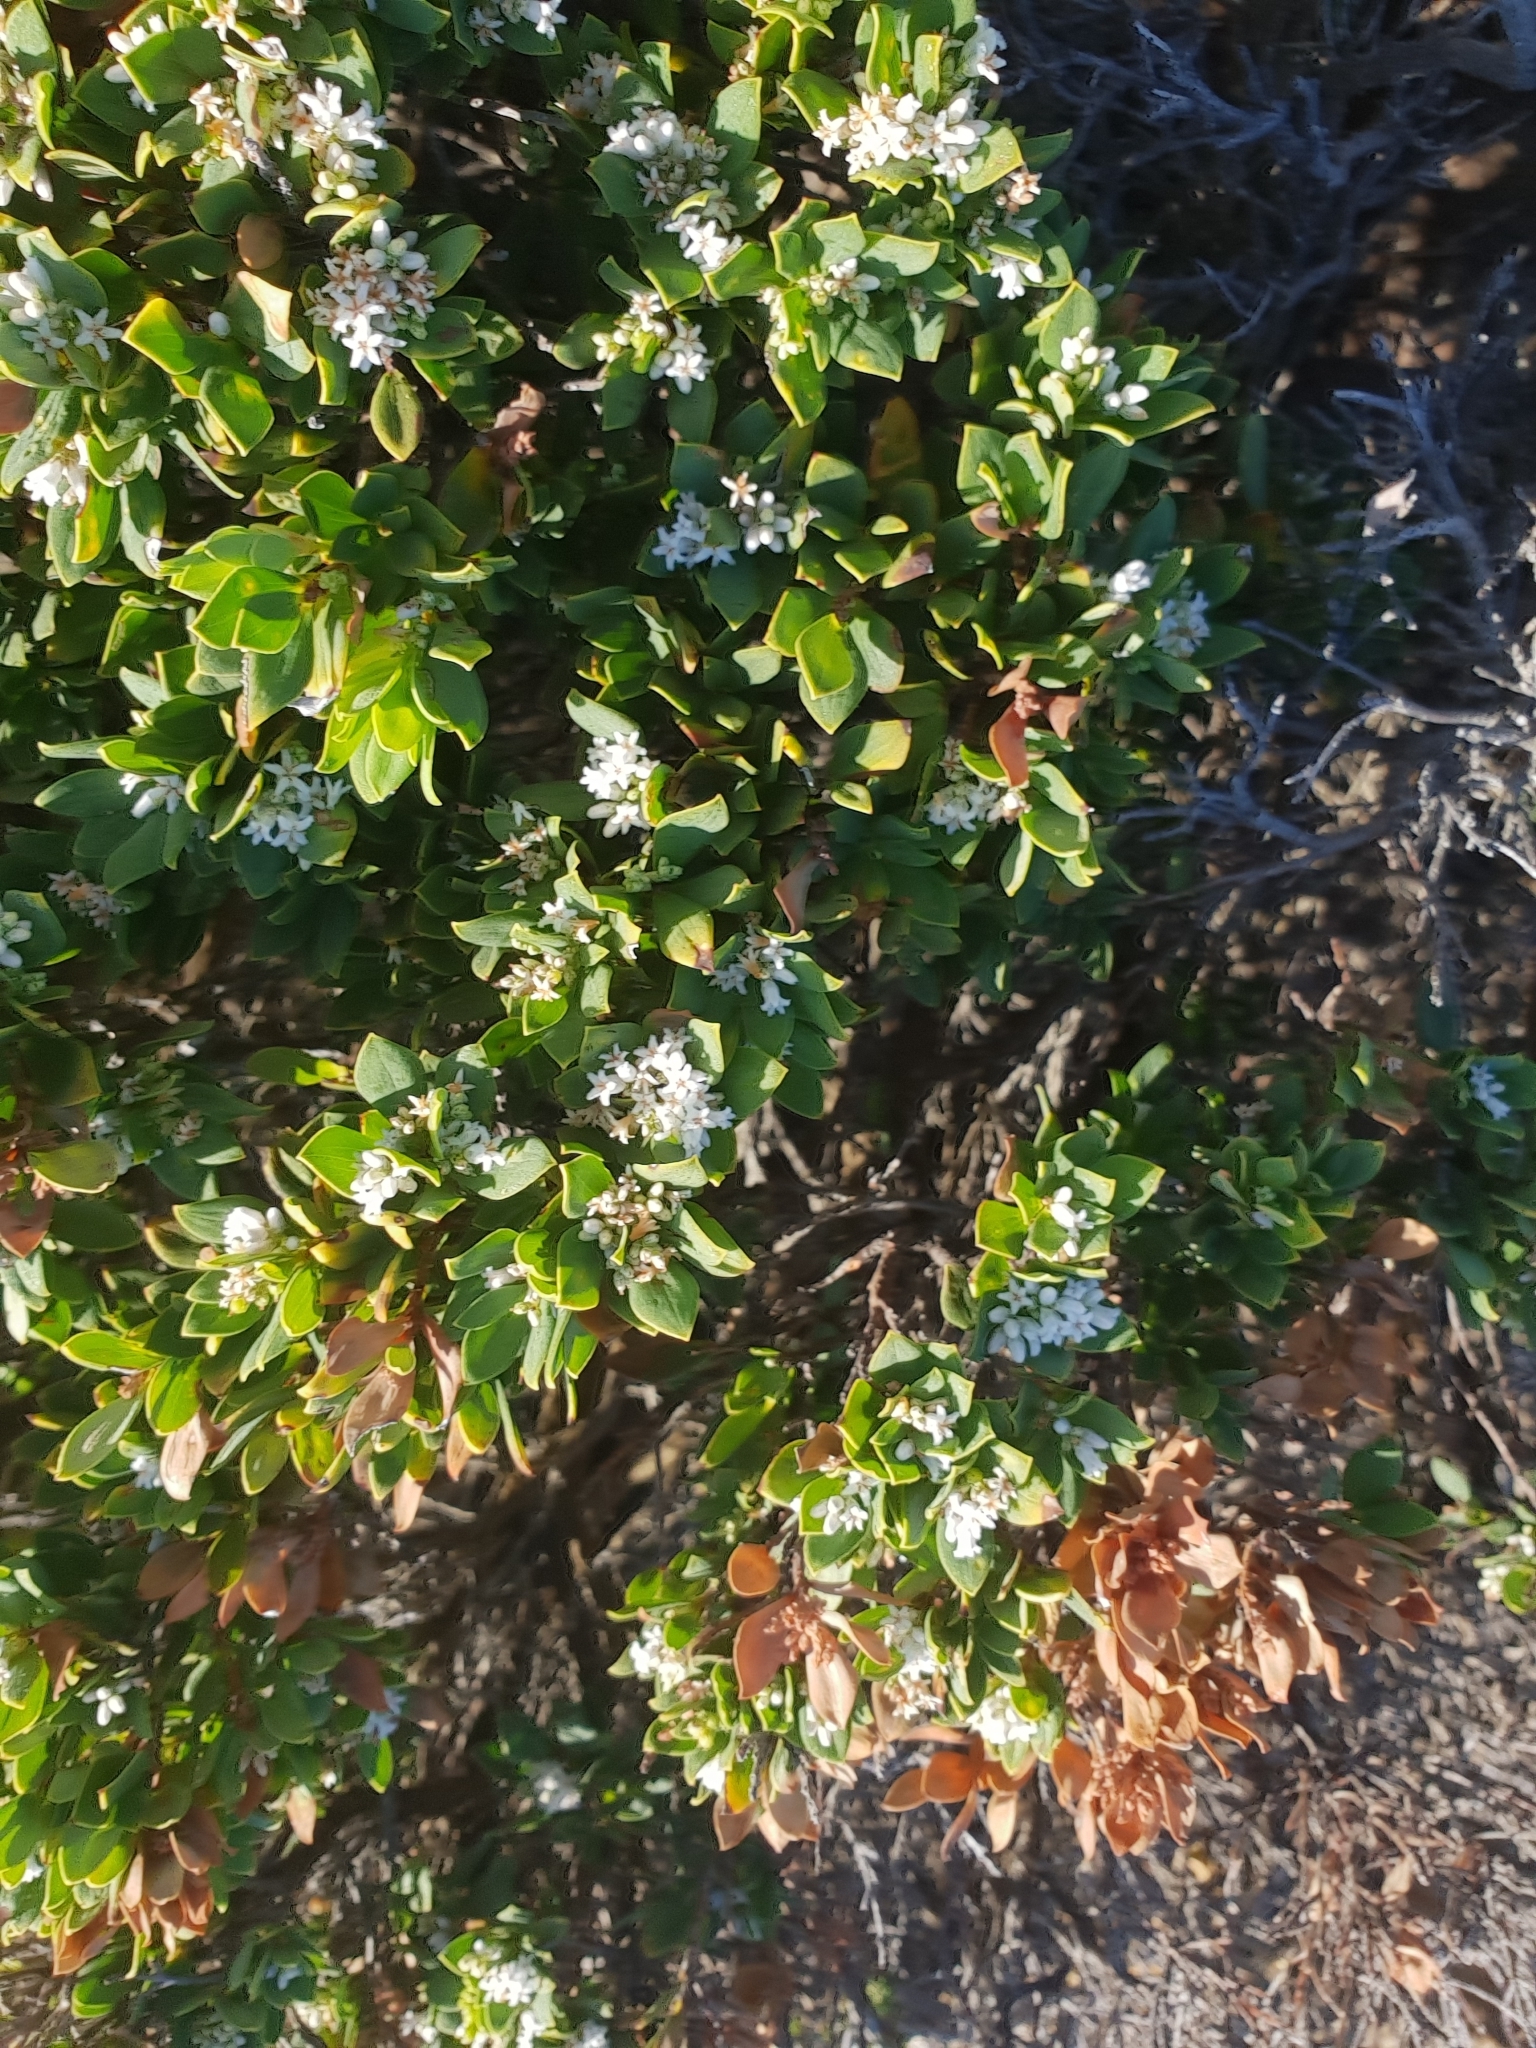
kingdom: Plantae
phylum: Tracheophyta
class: Magnoliopsida
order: Ericales
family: Ericaceae
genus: Leptecophylla
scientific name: Leptecophylla parvifolia
